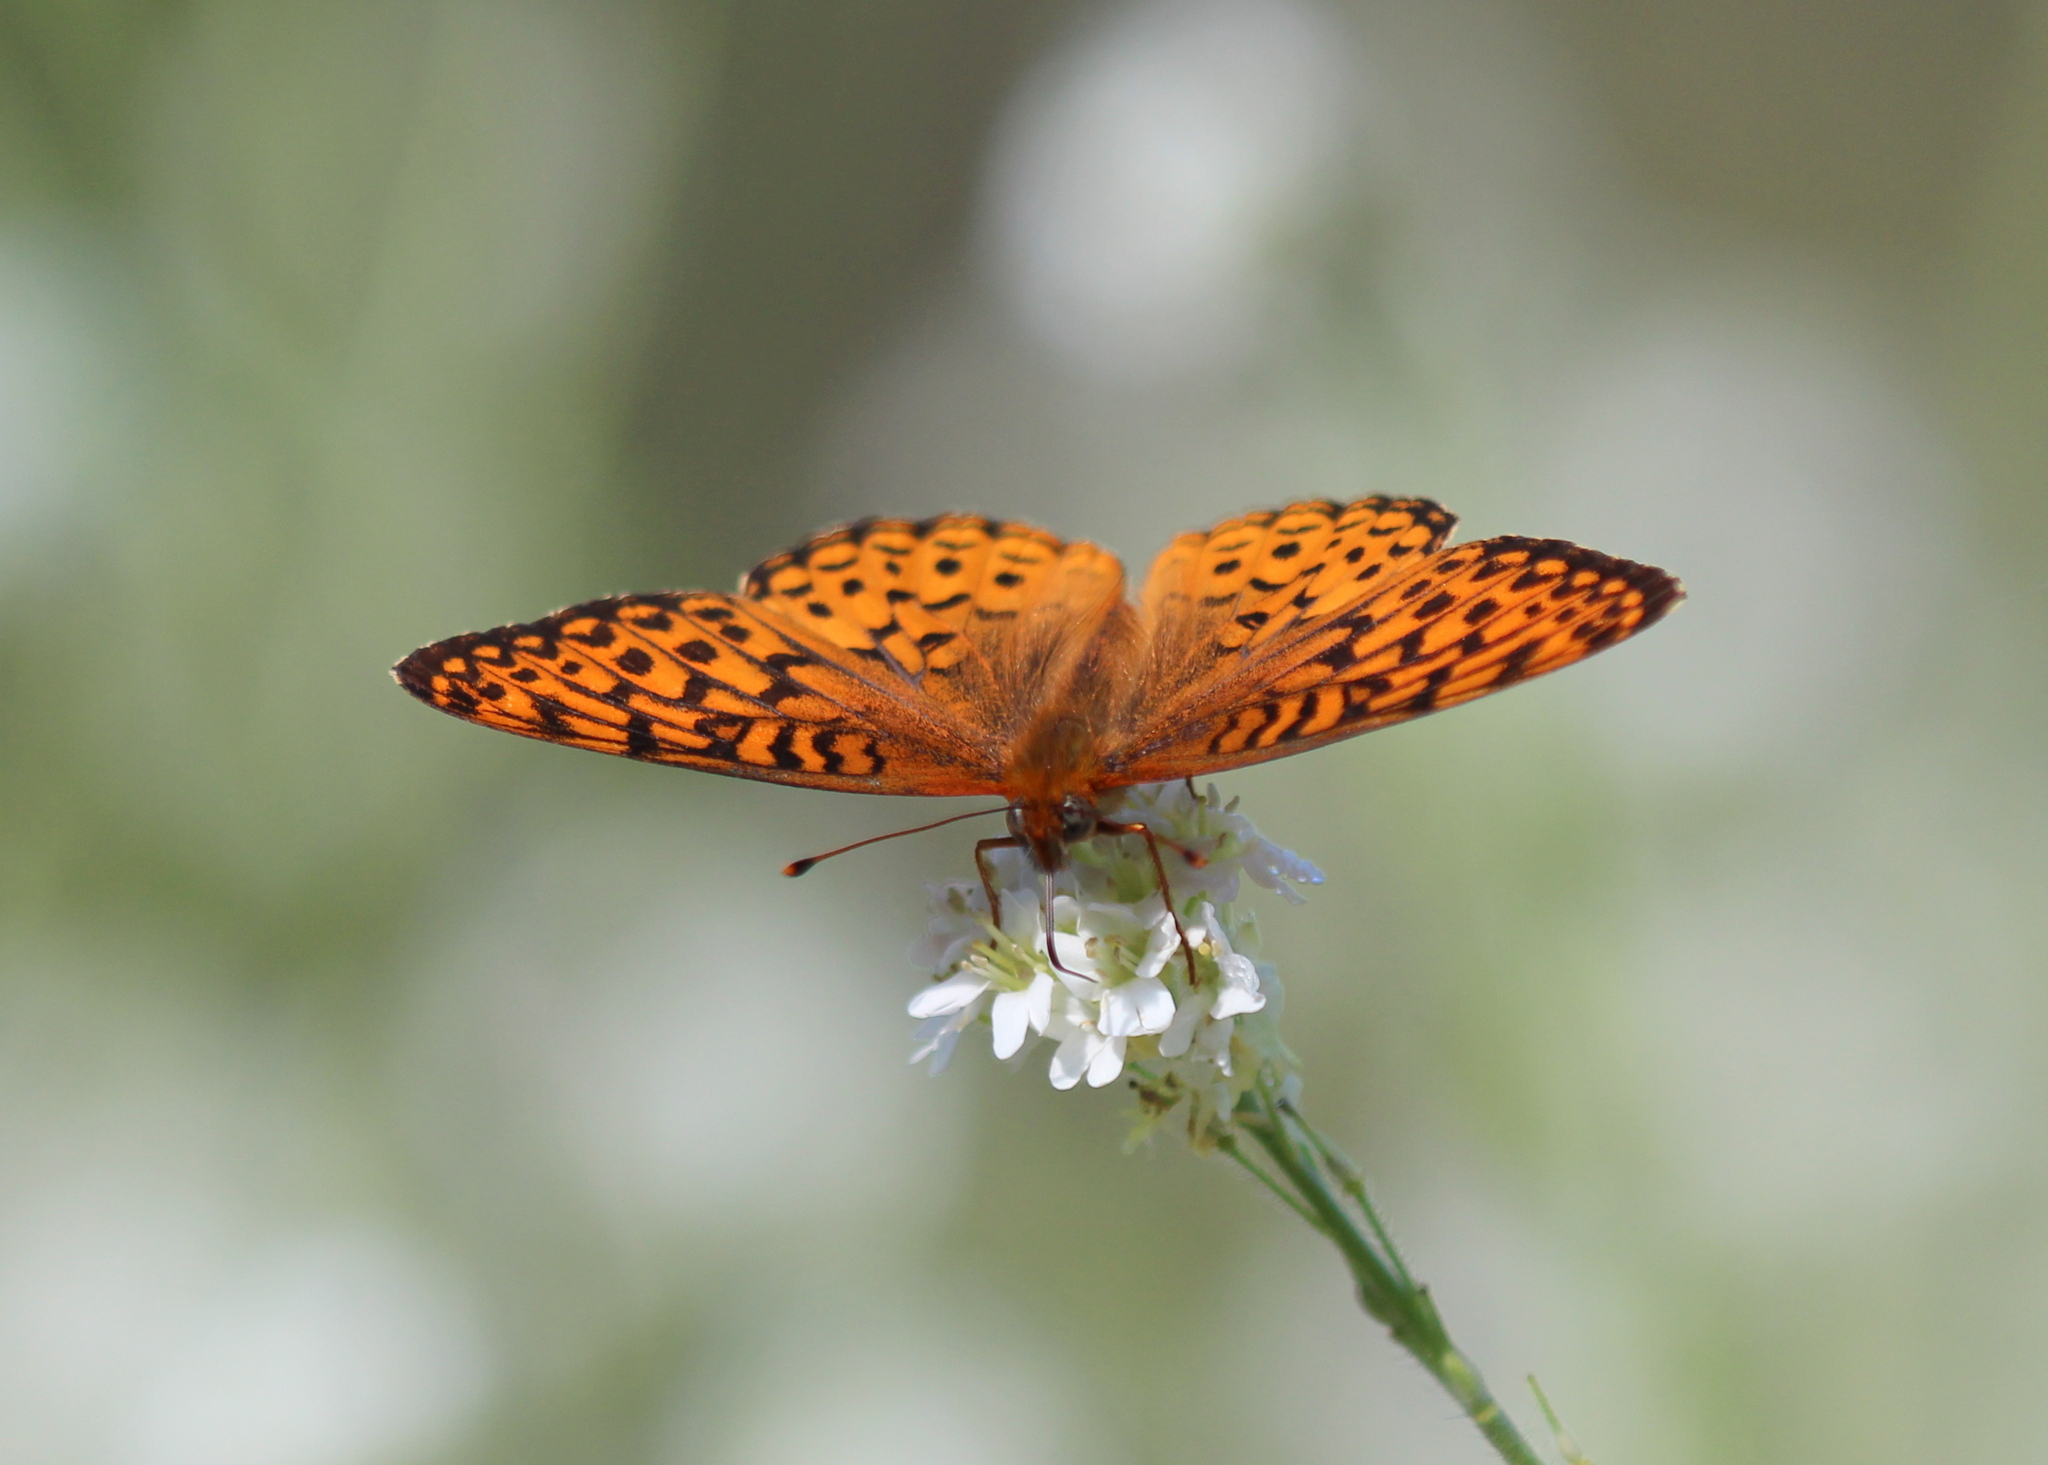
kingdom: Animalia
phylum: Arthropoda
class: Insecta
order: Lepidoptera
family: Nymphalidae
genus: Speyeria
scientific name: Speyeria atlantis
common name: Atlantis fritillary
